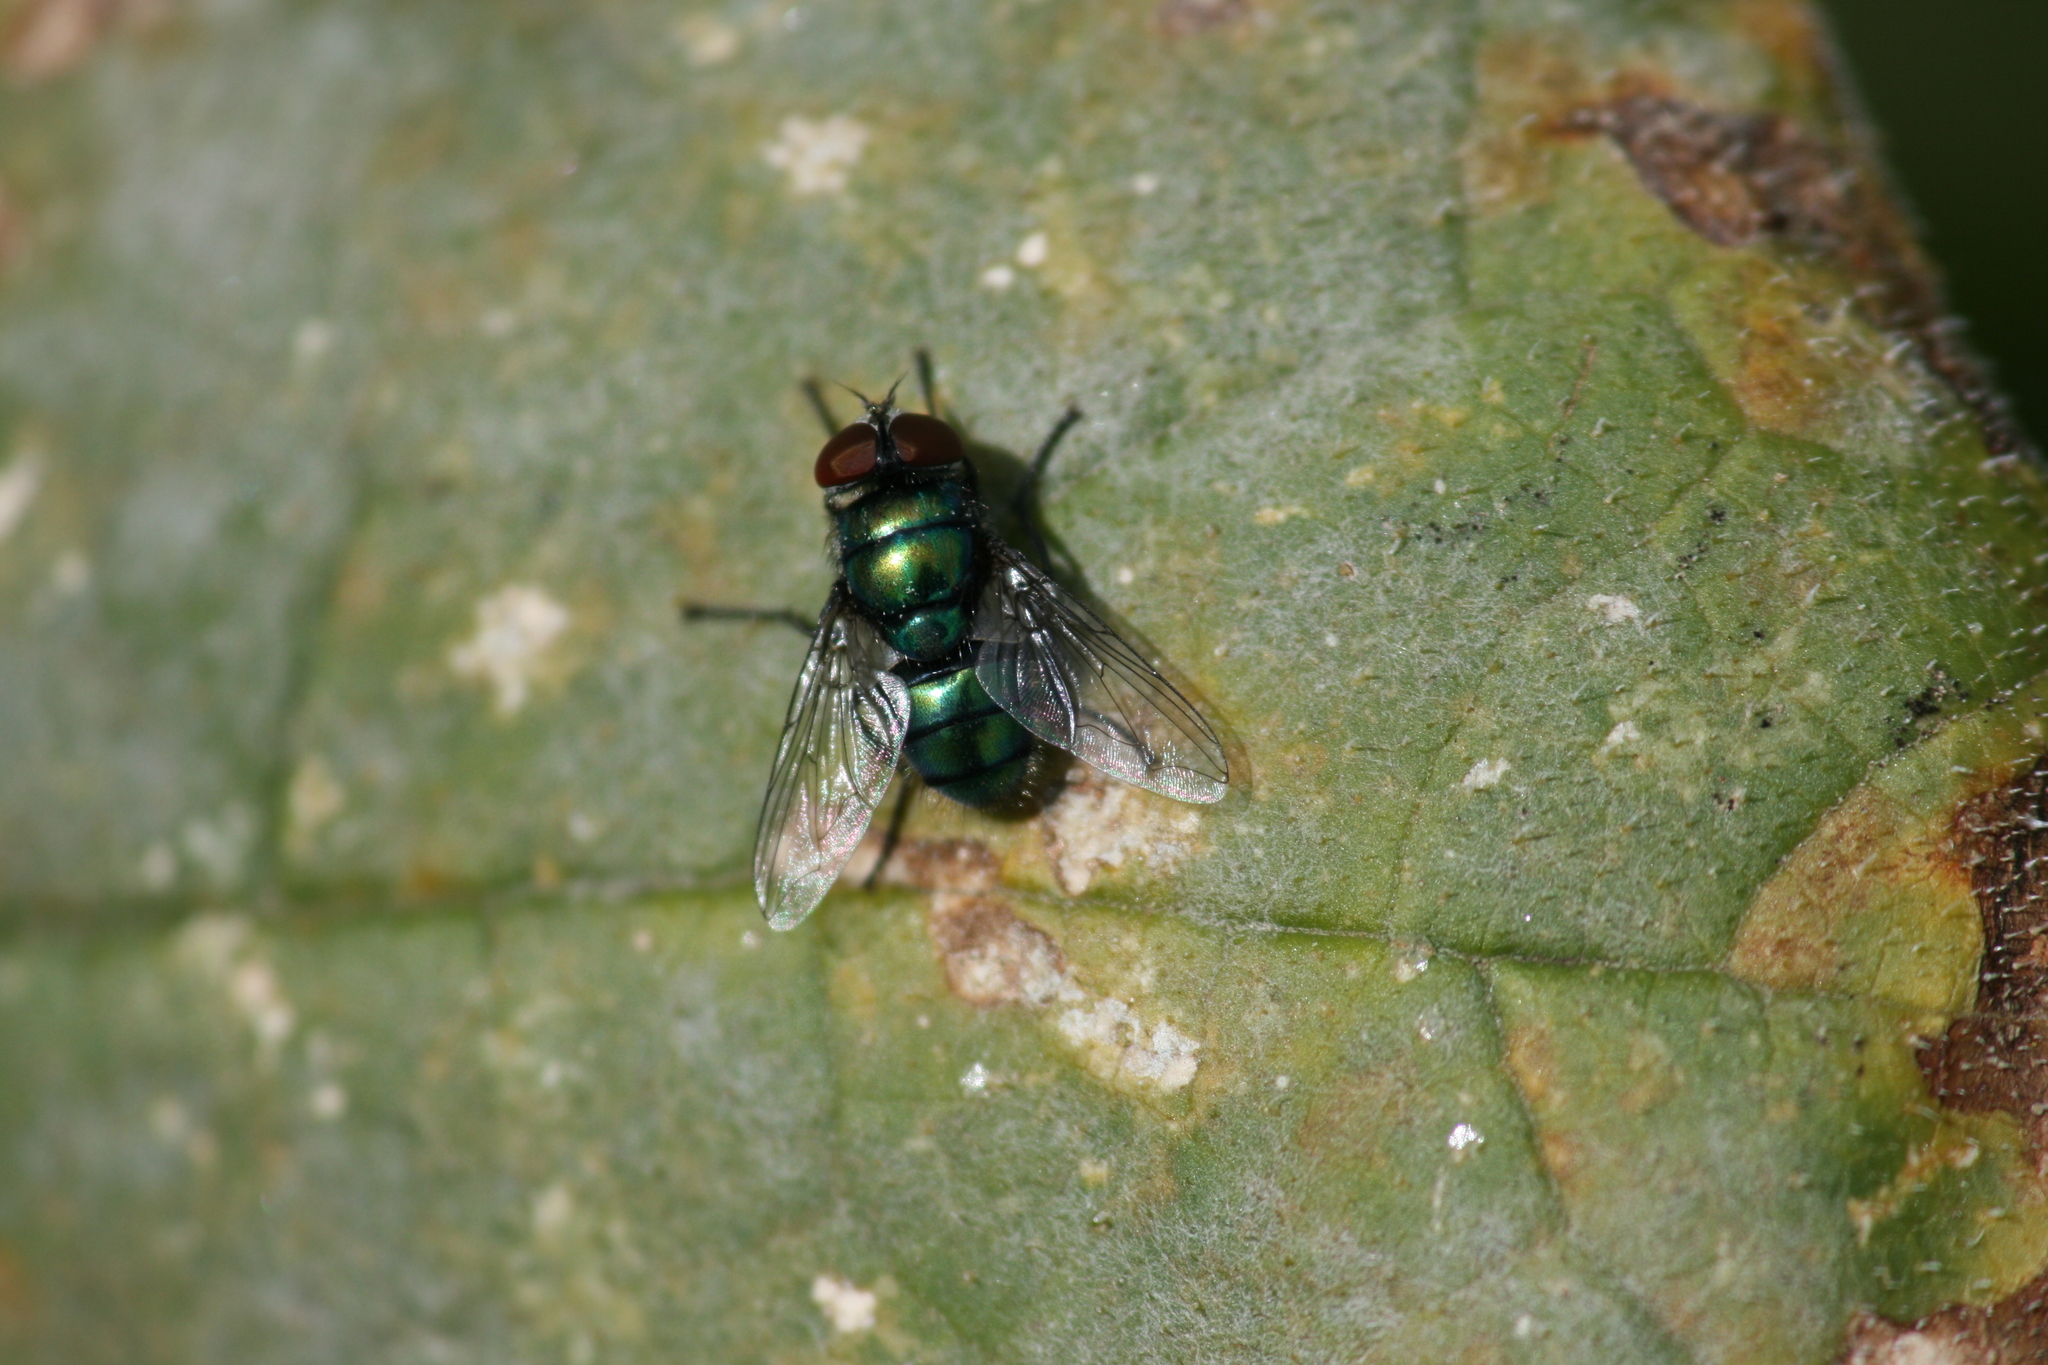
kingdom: Animalia
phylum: Arthropoda
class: Insecta
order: Diptera
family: Calliphoridae
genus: Chrysomya
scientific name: Chrysomya albiceps
